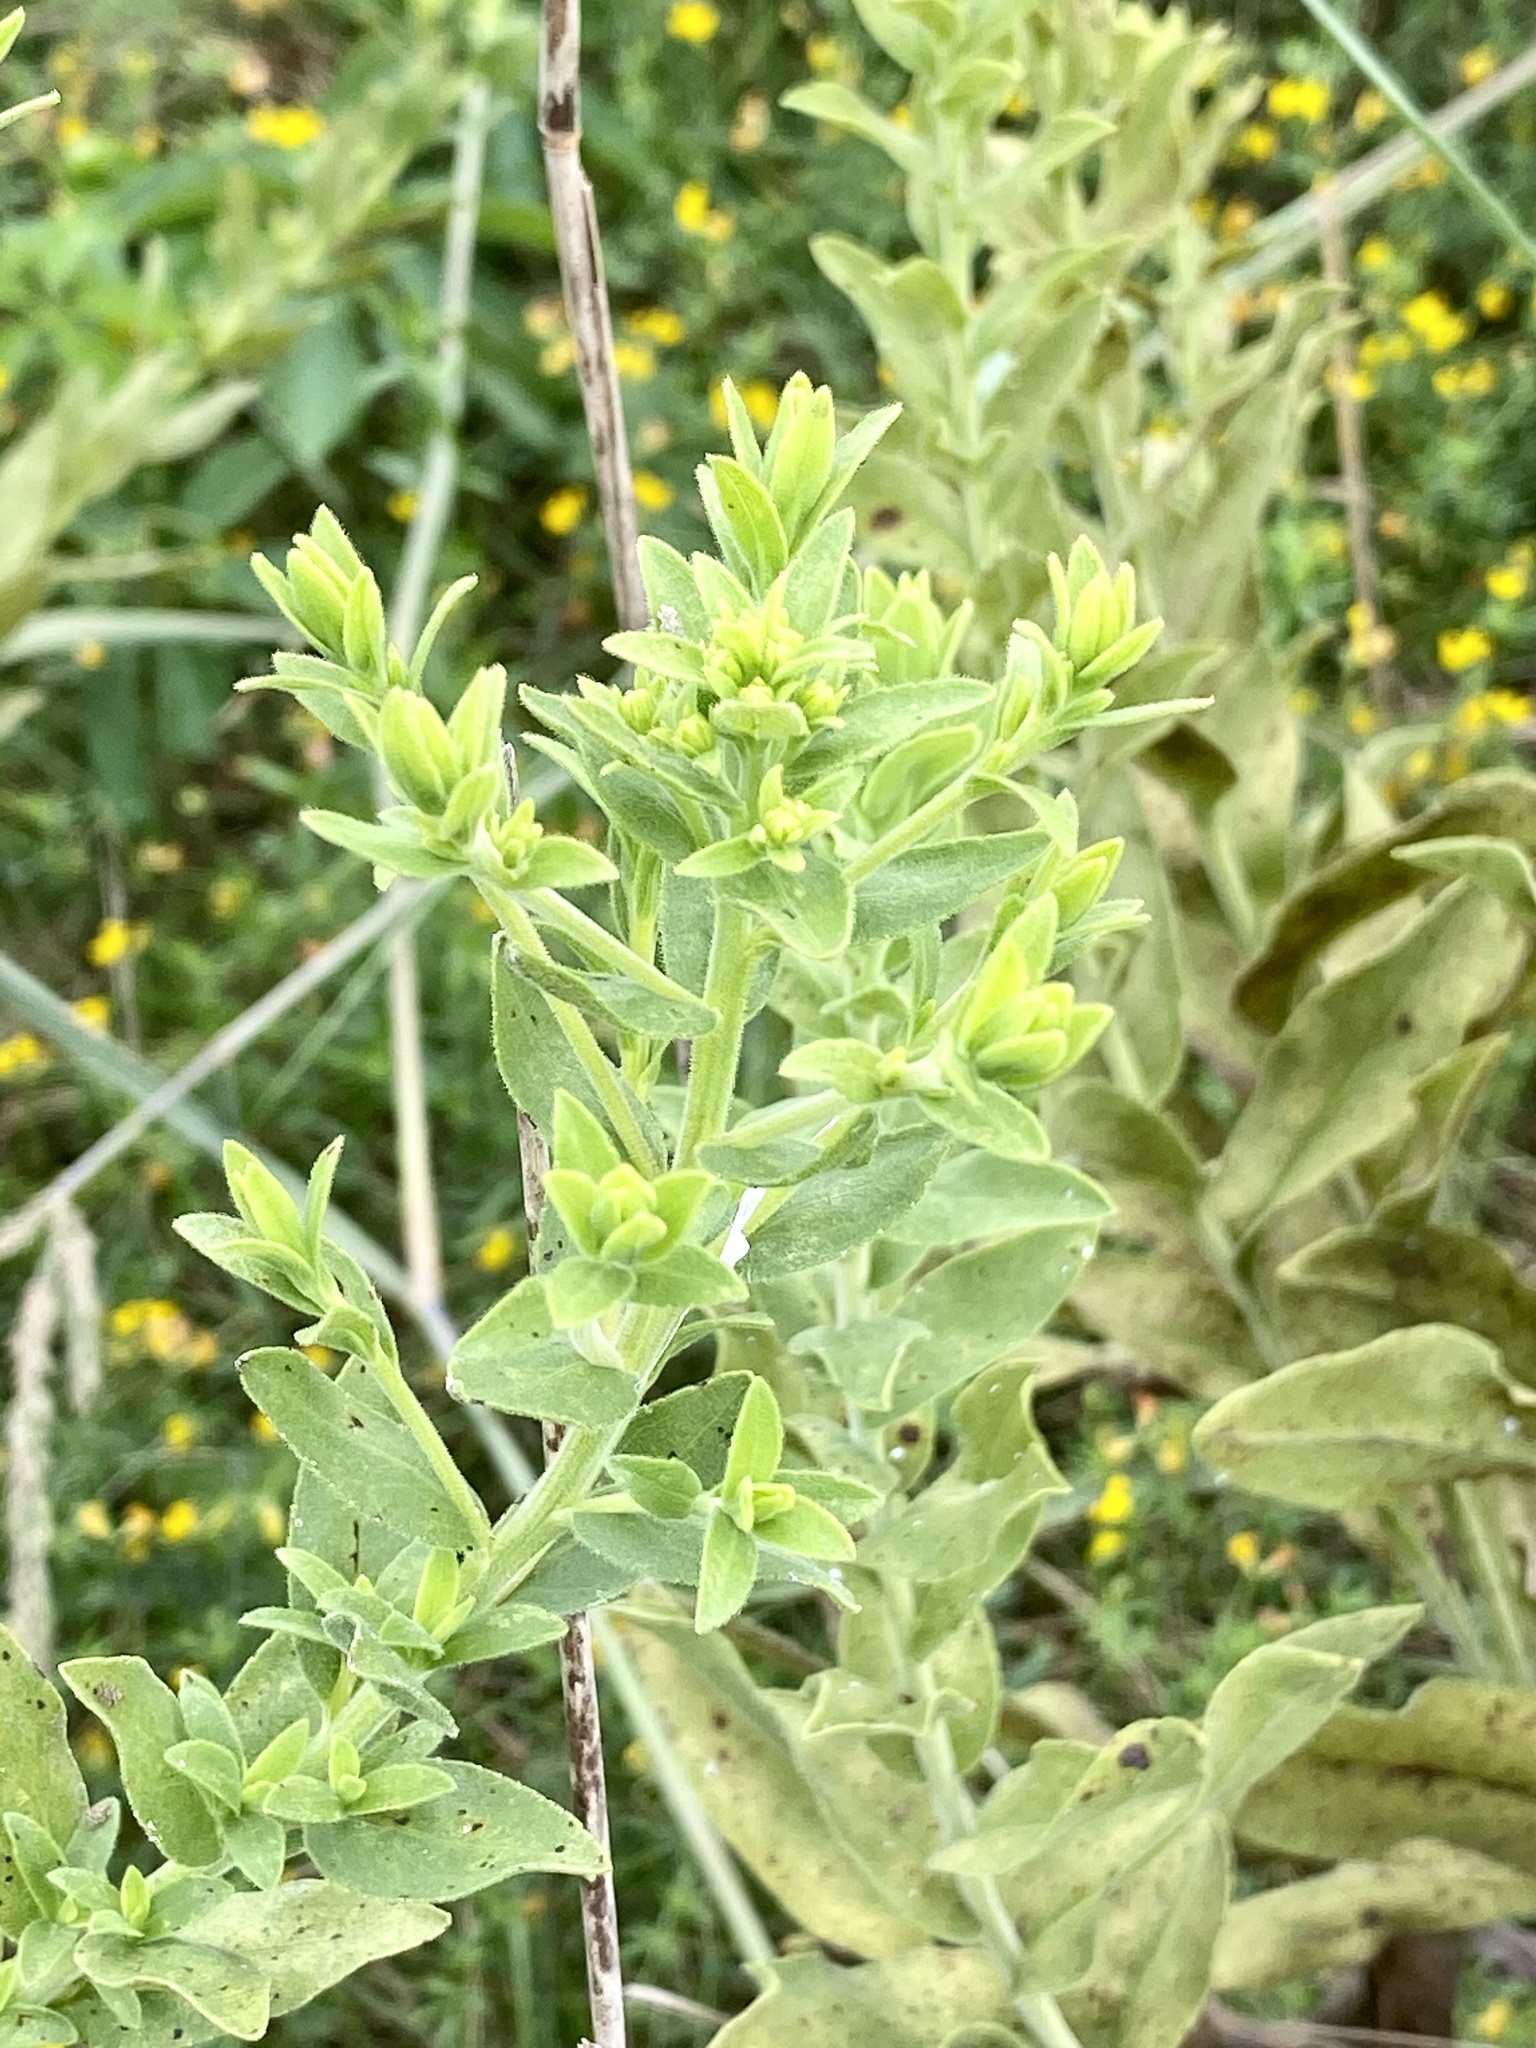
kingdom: Plantae
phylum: Tracheophyta
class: Magnoliopsida
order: Asterales
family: Asteraceae
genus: Solidago
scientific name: Solidago rigida
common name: Rigid goldenrod
